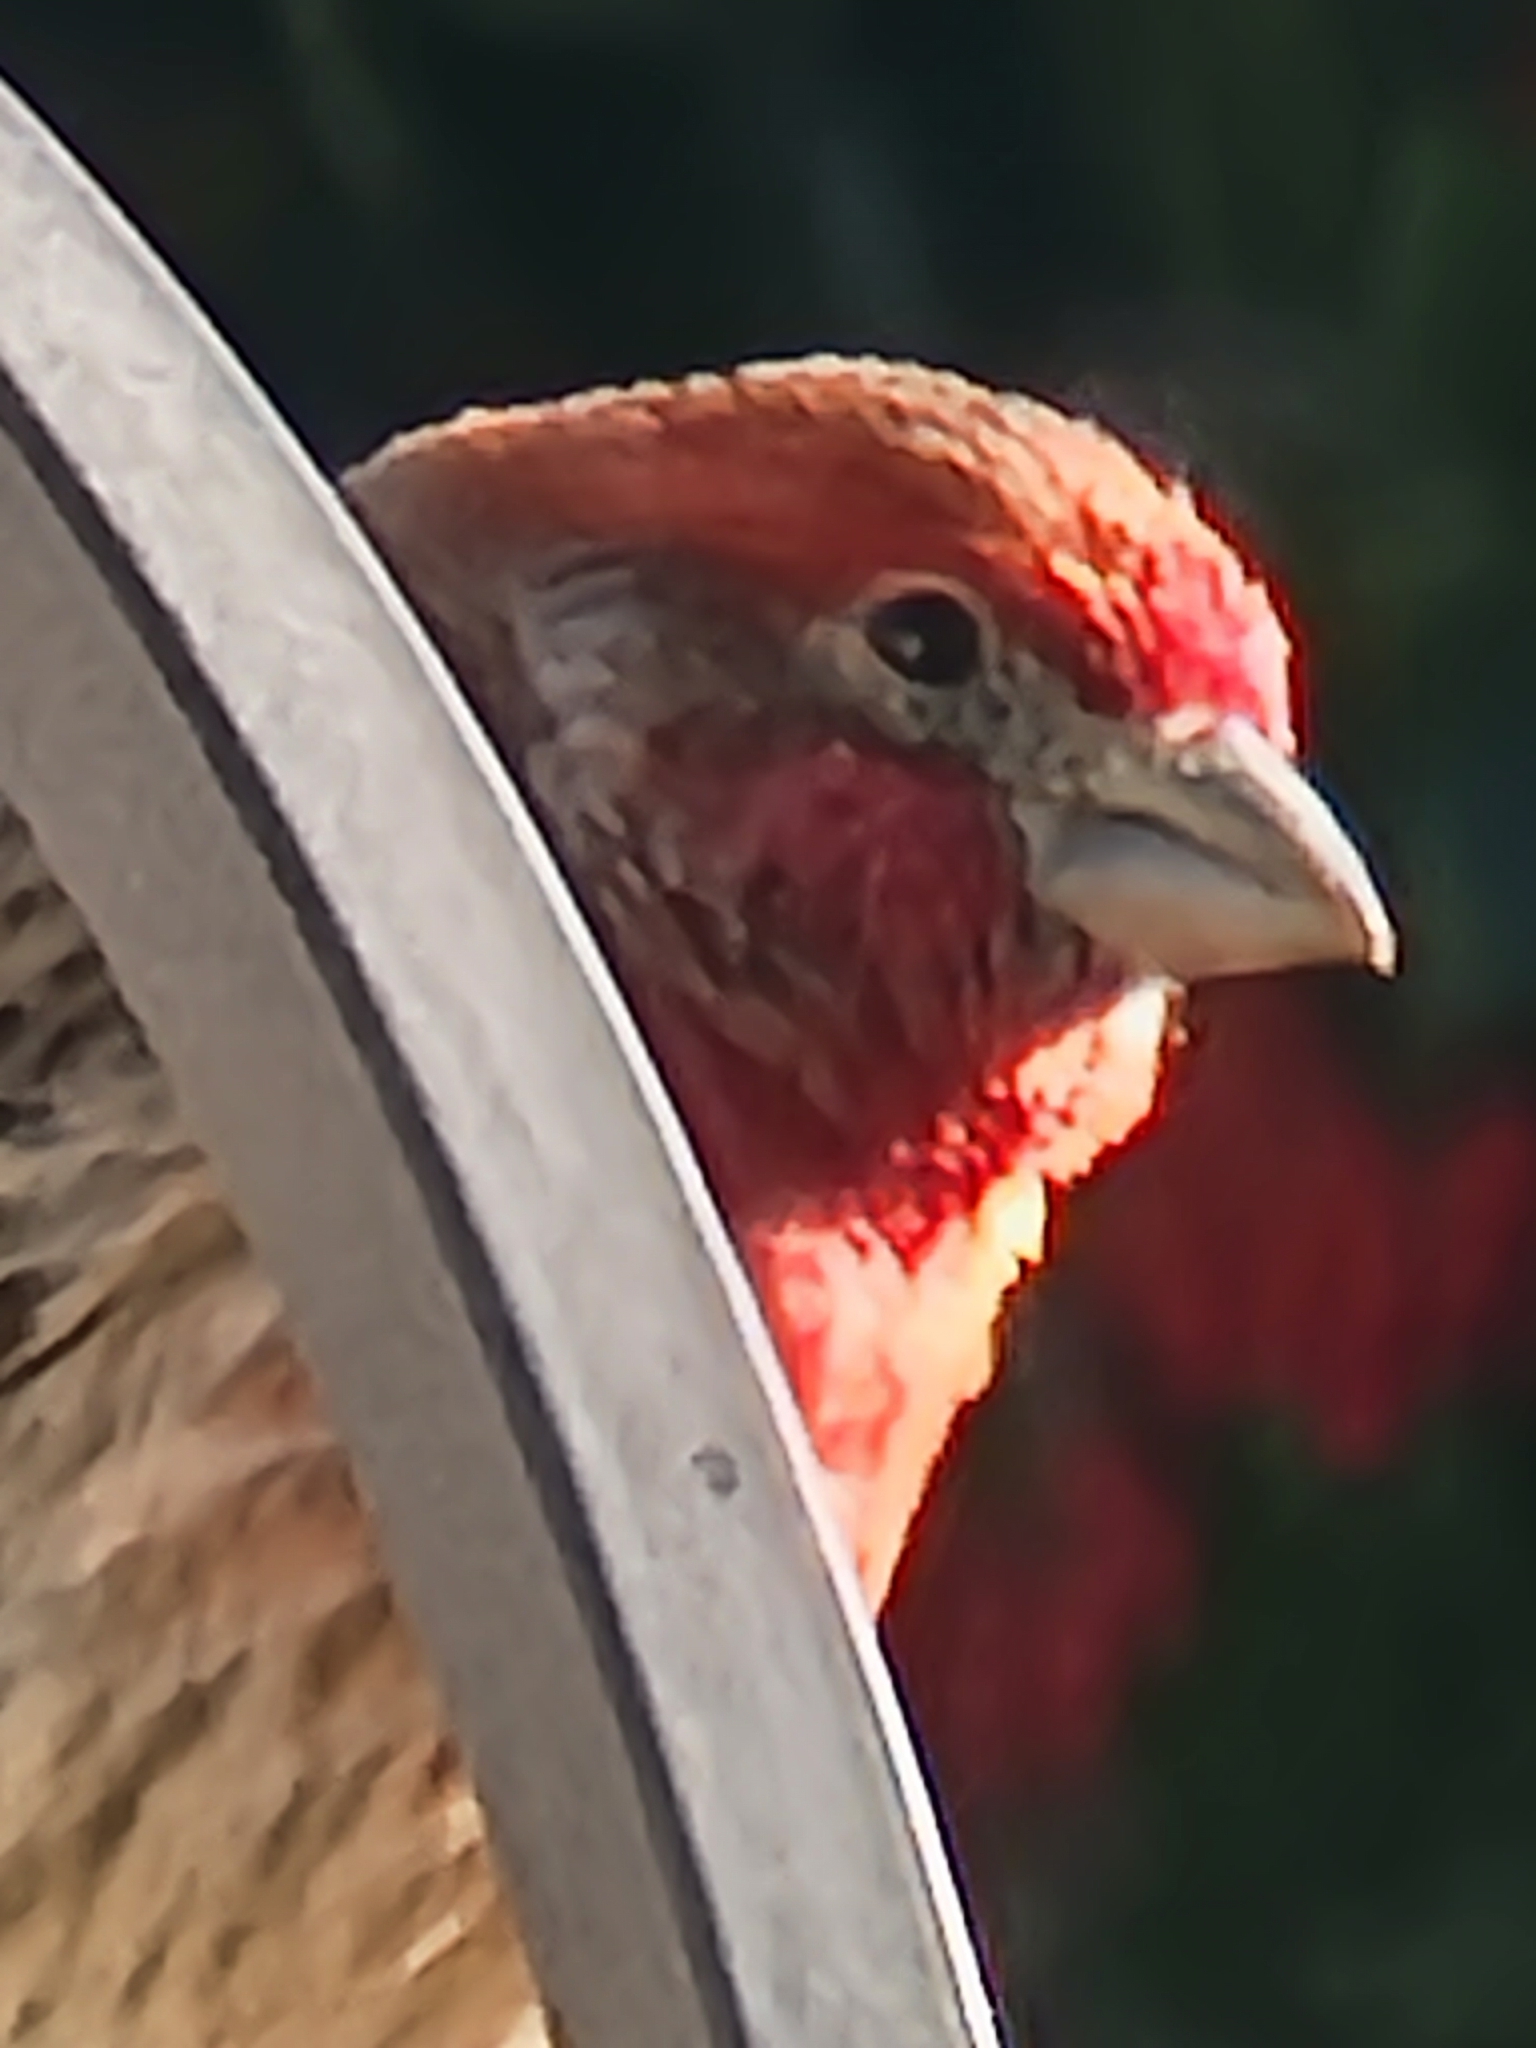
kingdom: Animalia
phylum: Chordata
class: Aves
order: Passeriformes
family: Fringillidae
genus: Haemorhous
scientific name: Haemorhous mexicanus
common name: House finch
